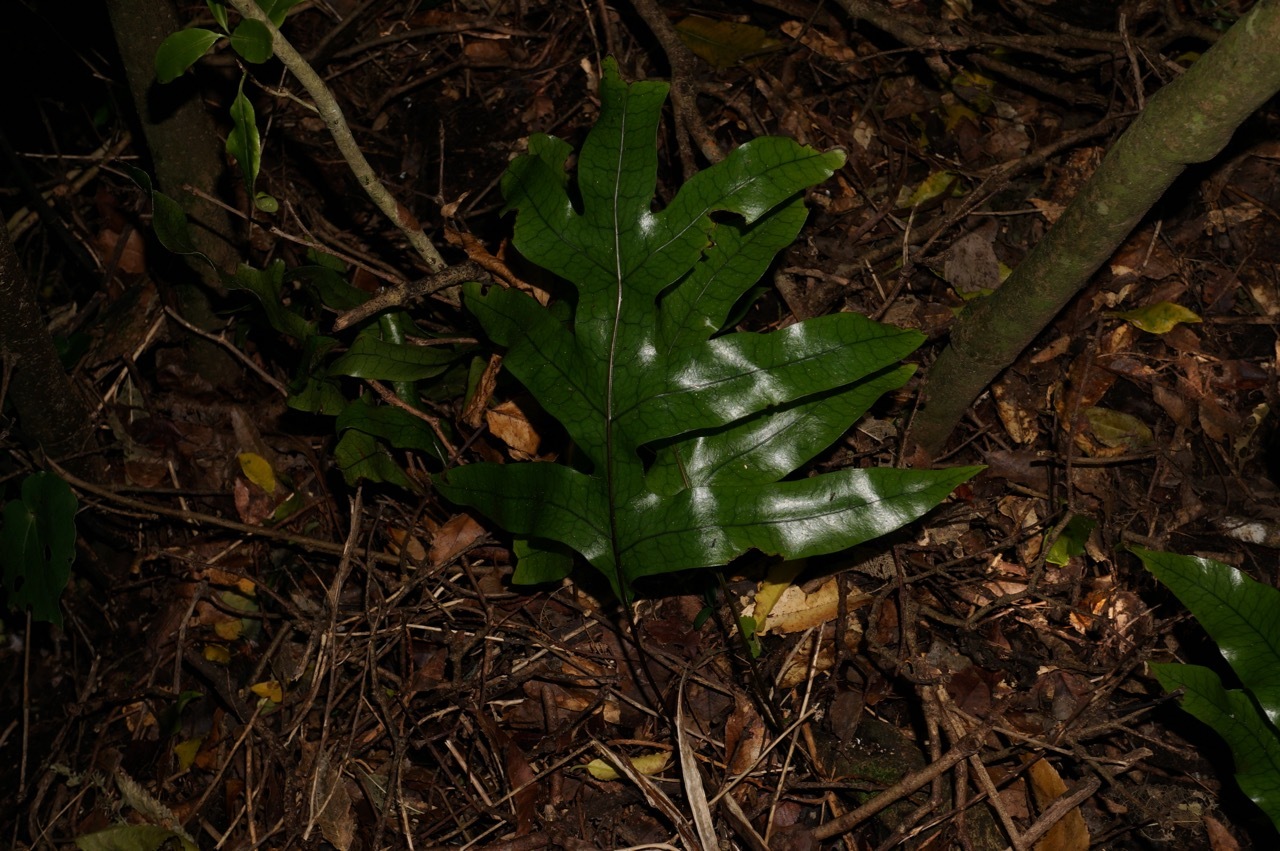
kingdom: Plantae
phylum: Tracheophyta
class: Polypodiopsida
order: Polypodiales
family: Polypodiaceae
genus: Lecanopteris
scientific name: Lecanopteris pustulata
